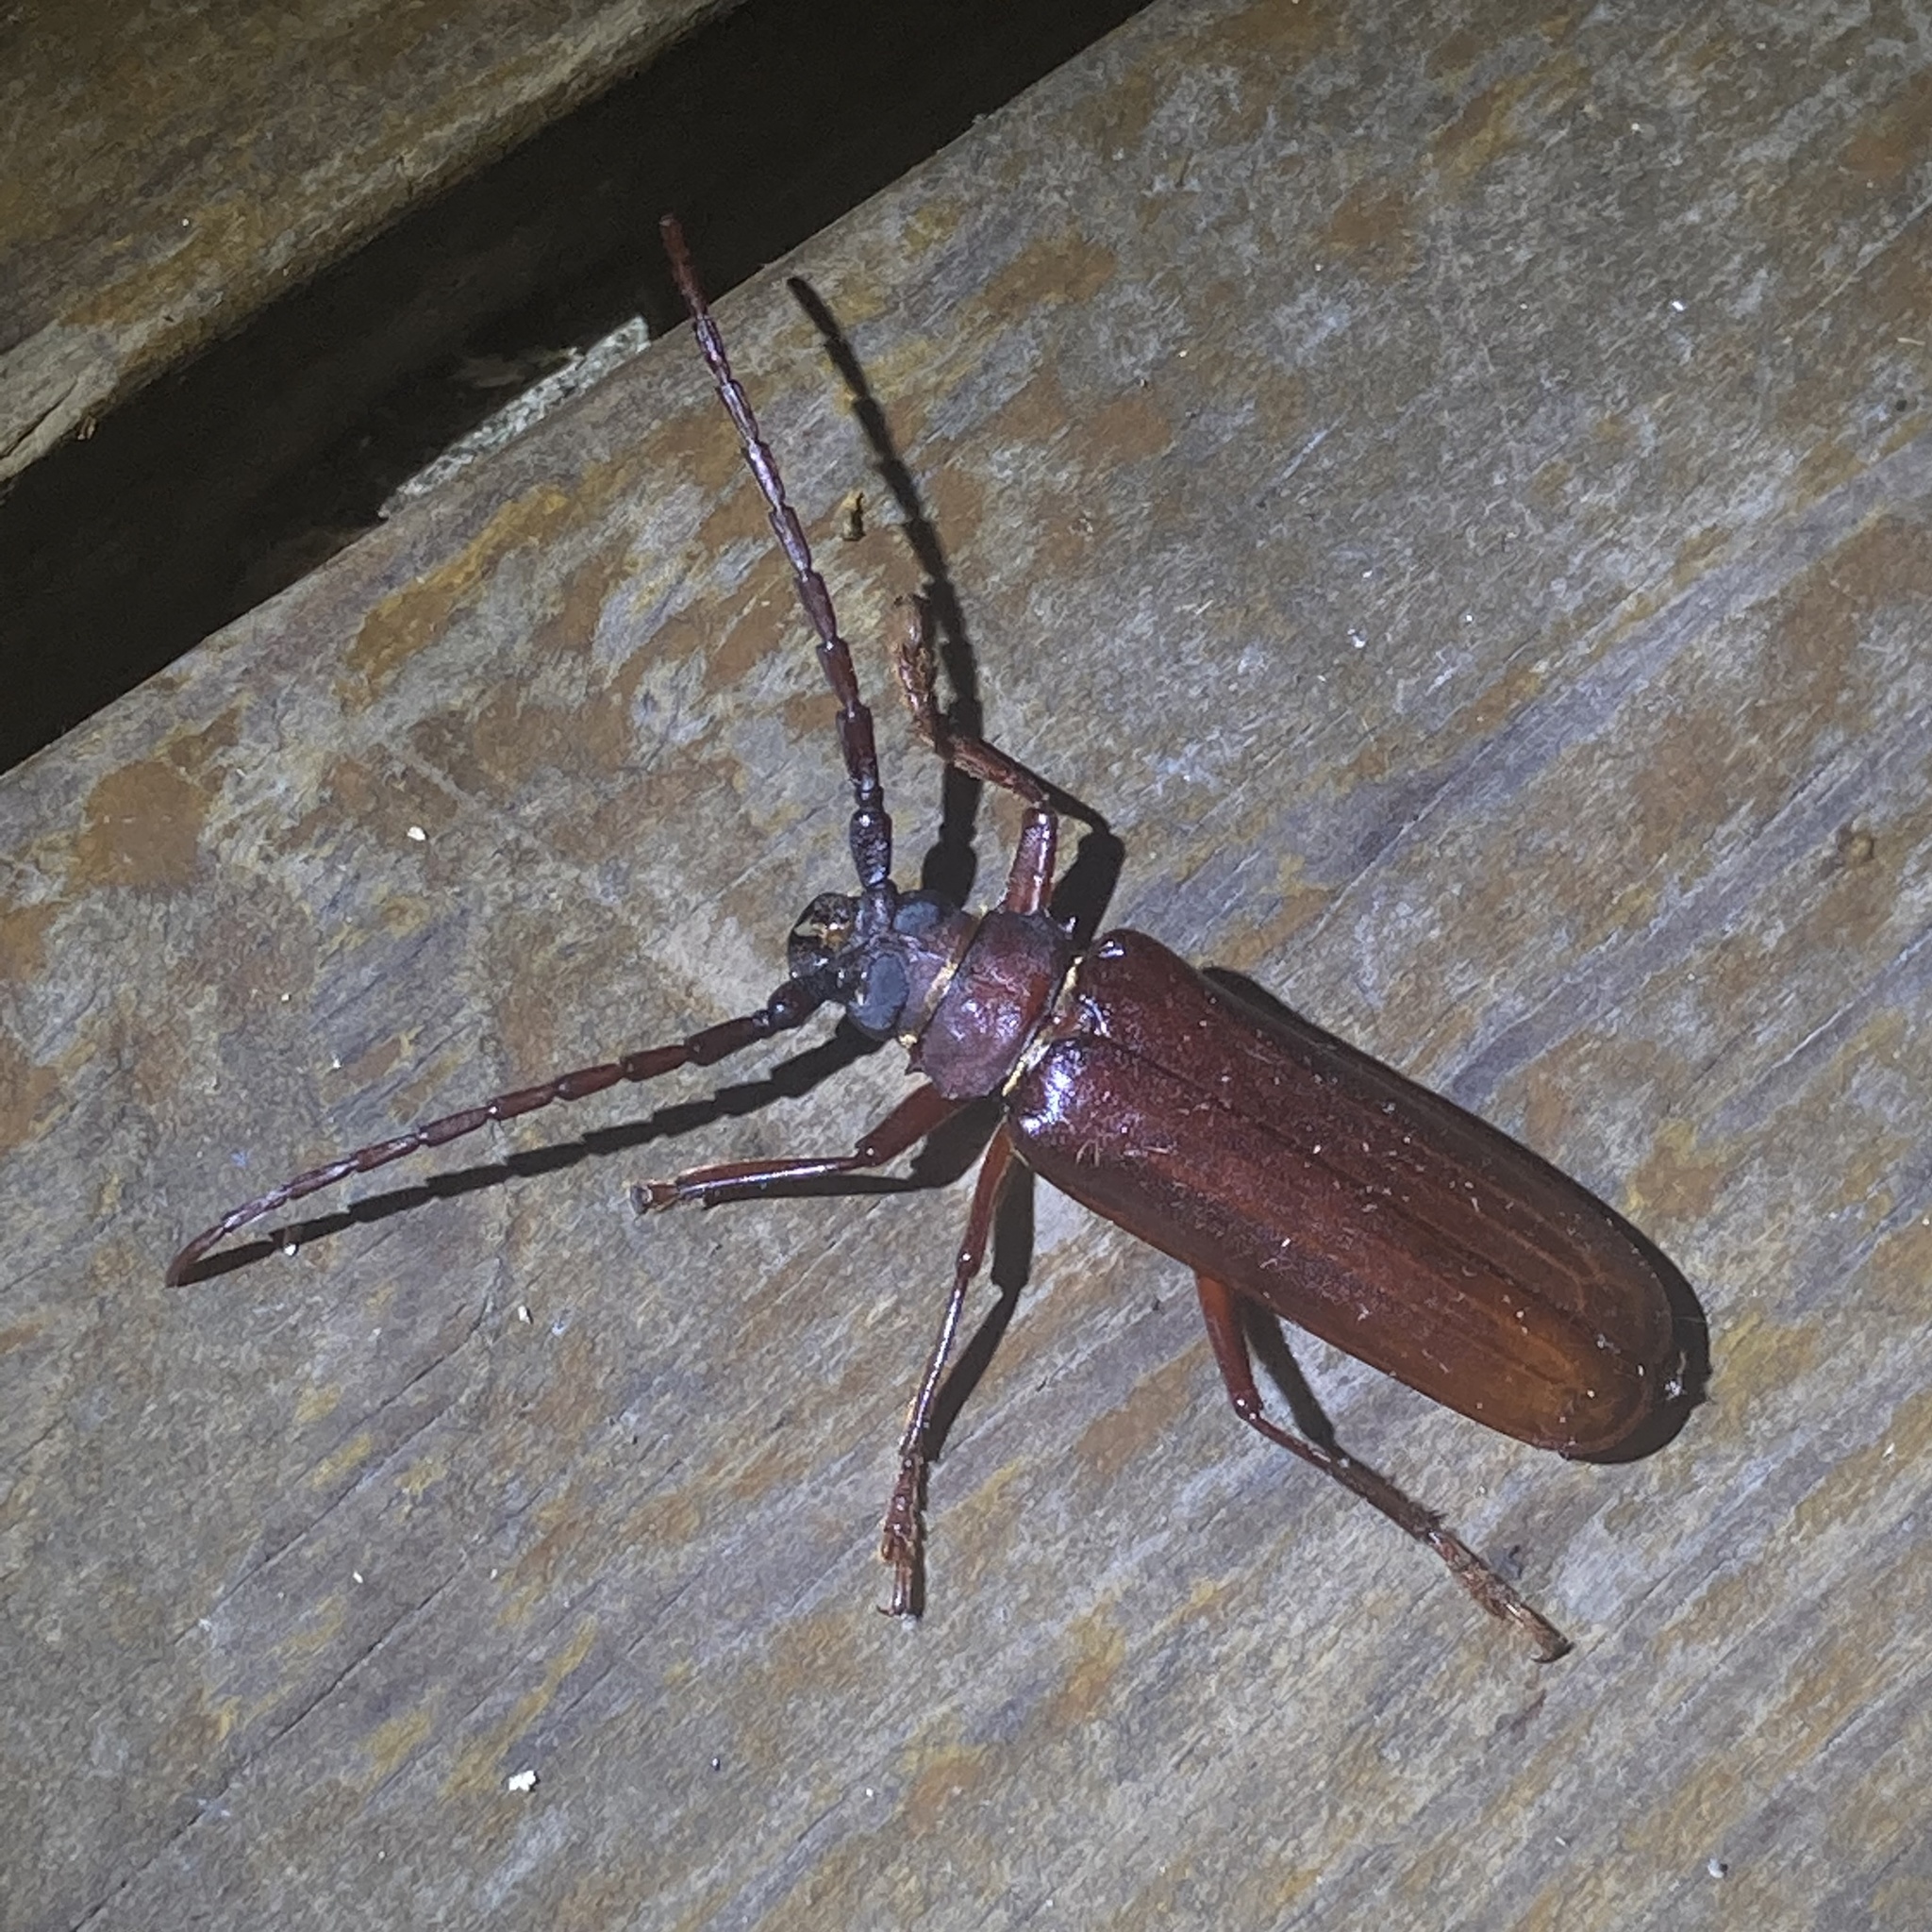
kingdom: Animalia
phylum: Arthropoda
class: Insecta
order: Coleoptera
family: Cerambycidae
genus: Orthosoma
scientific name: Orthosoma brunneum
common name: Brown prionid beetle
